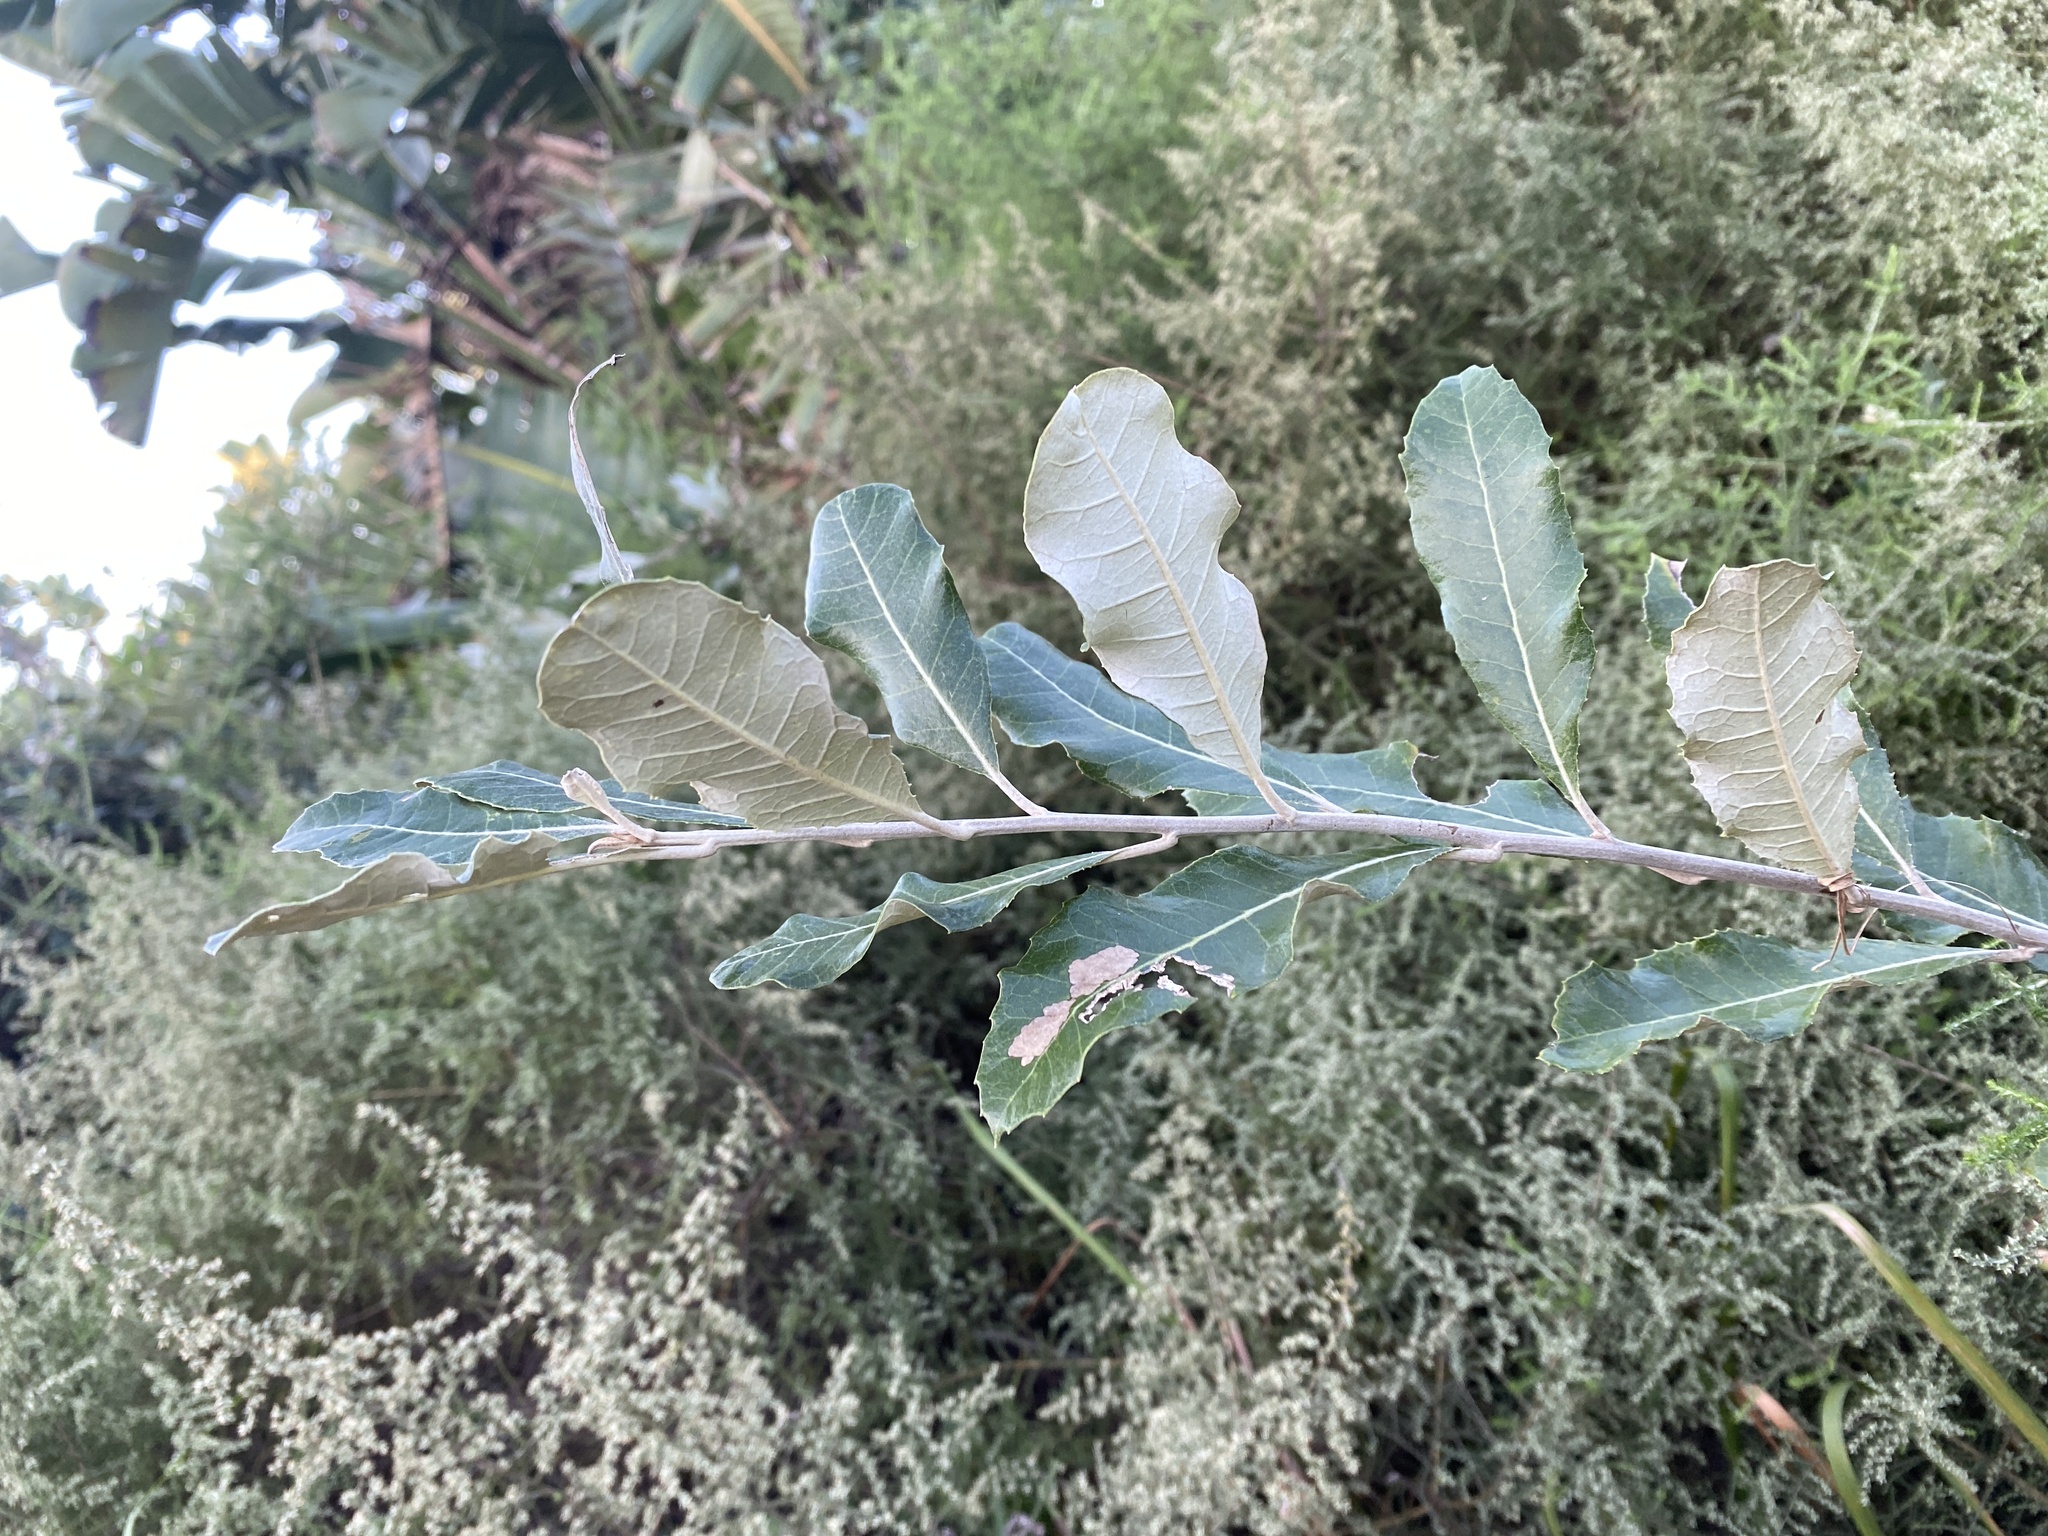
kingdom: Plantae
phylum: Tracheophyta
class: Magnoliopsida
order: Asterales
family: Asteraceae
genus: Brachylaena
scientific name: Brachylaena discolor
